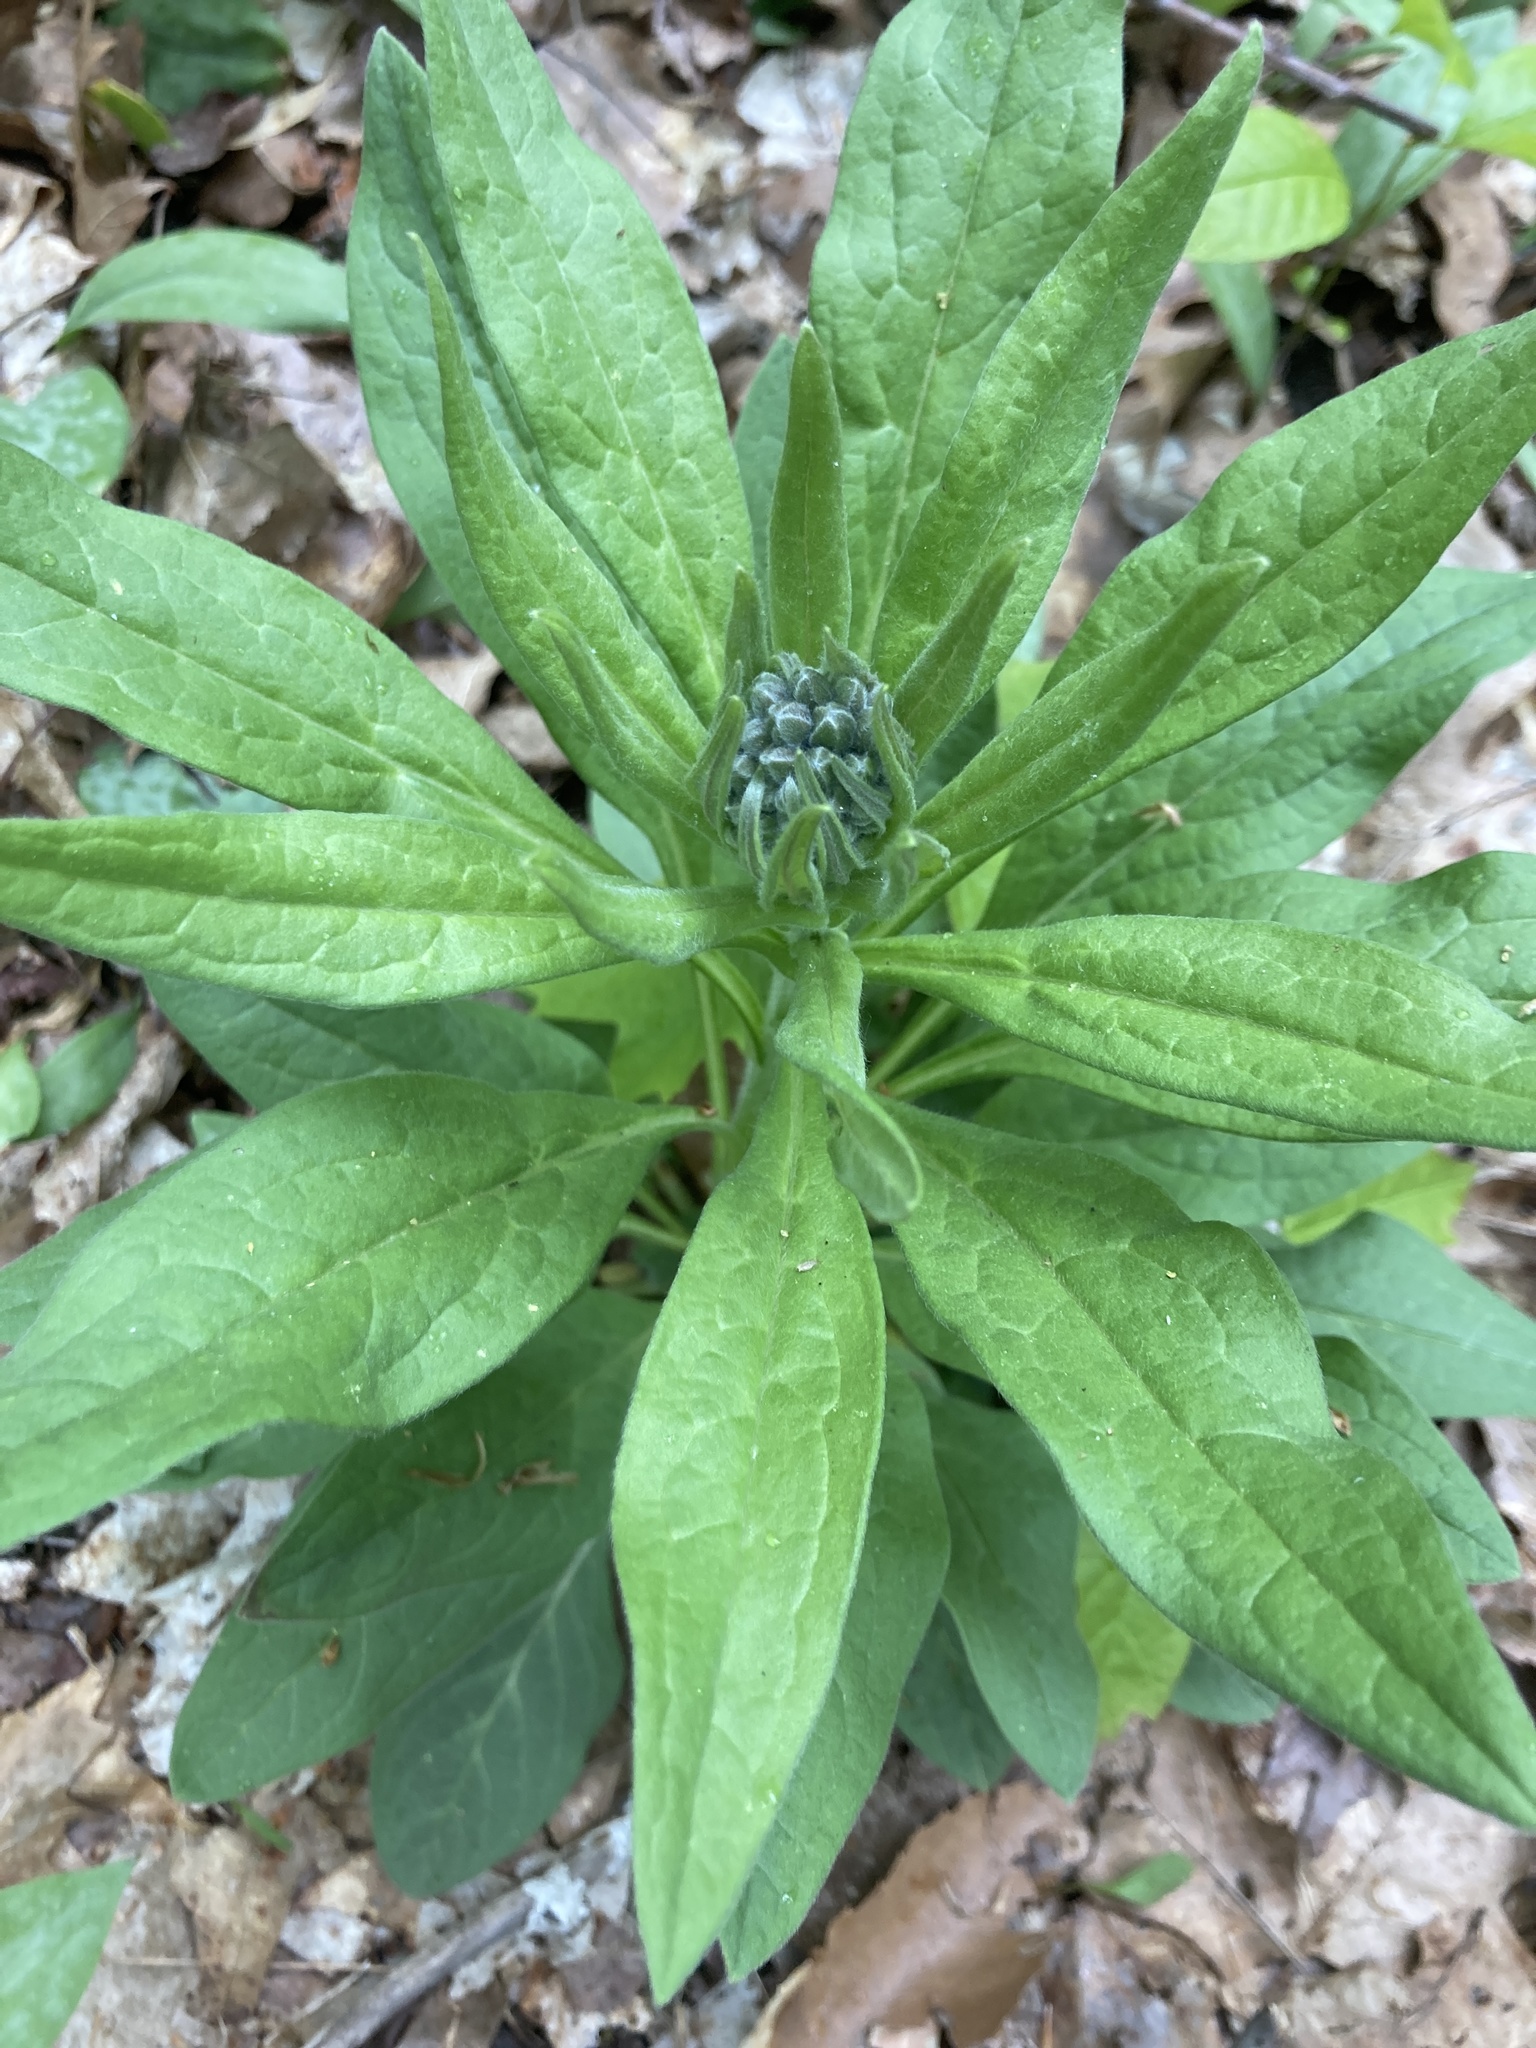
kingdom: Plantae
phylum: Tracheophyta
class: Magnoliopsida
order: Boraginales
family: Boraginaceae
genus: Cynoglossum
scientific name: Cynoglossum officinale
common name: Hound's-tongue
